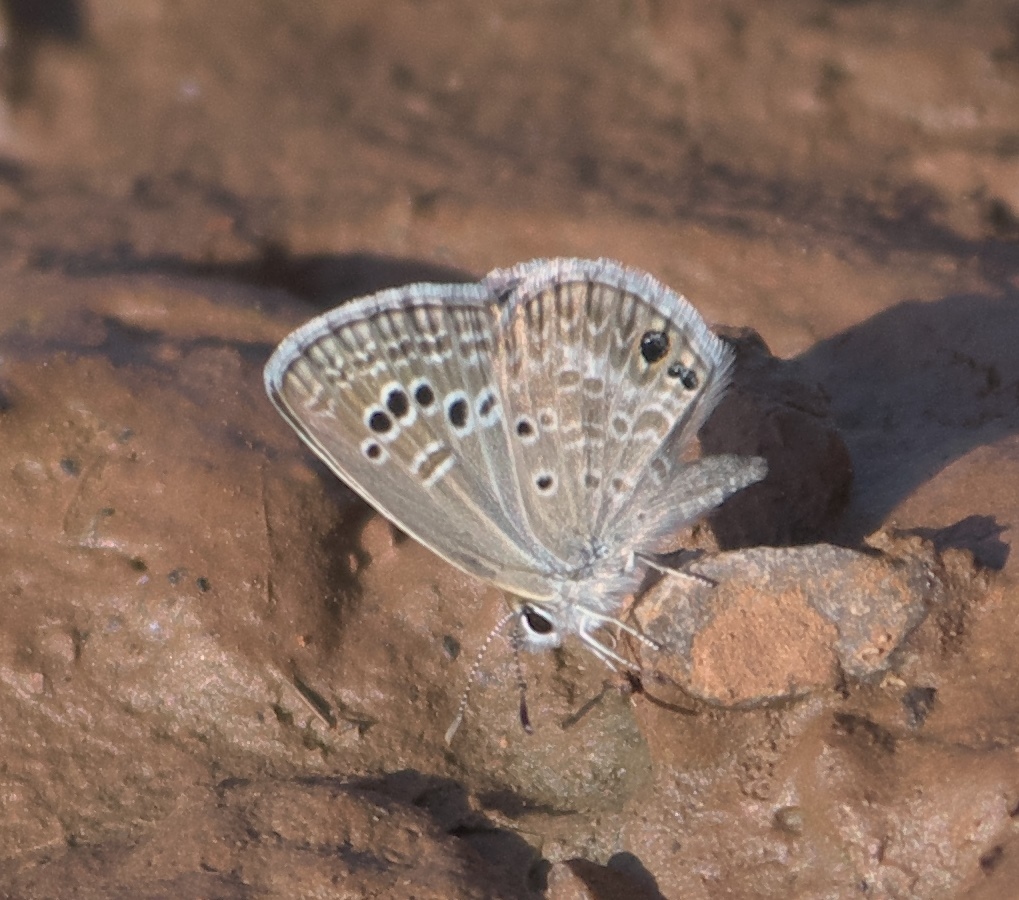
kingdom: Animalia
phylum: Arthropoda
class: Insecta
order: Lepidoptera
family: Lycaenidae
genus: Echinargus
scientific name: Echinargus isola
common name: Reakirt's blue
